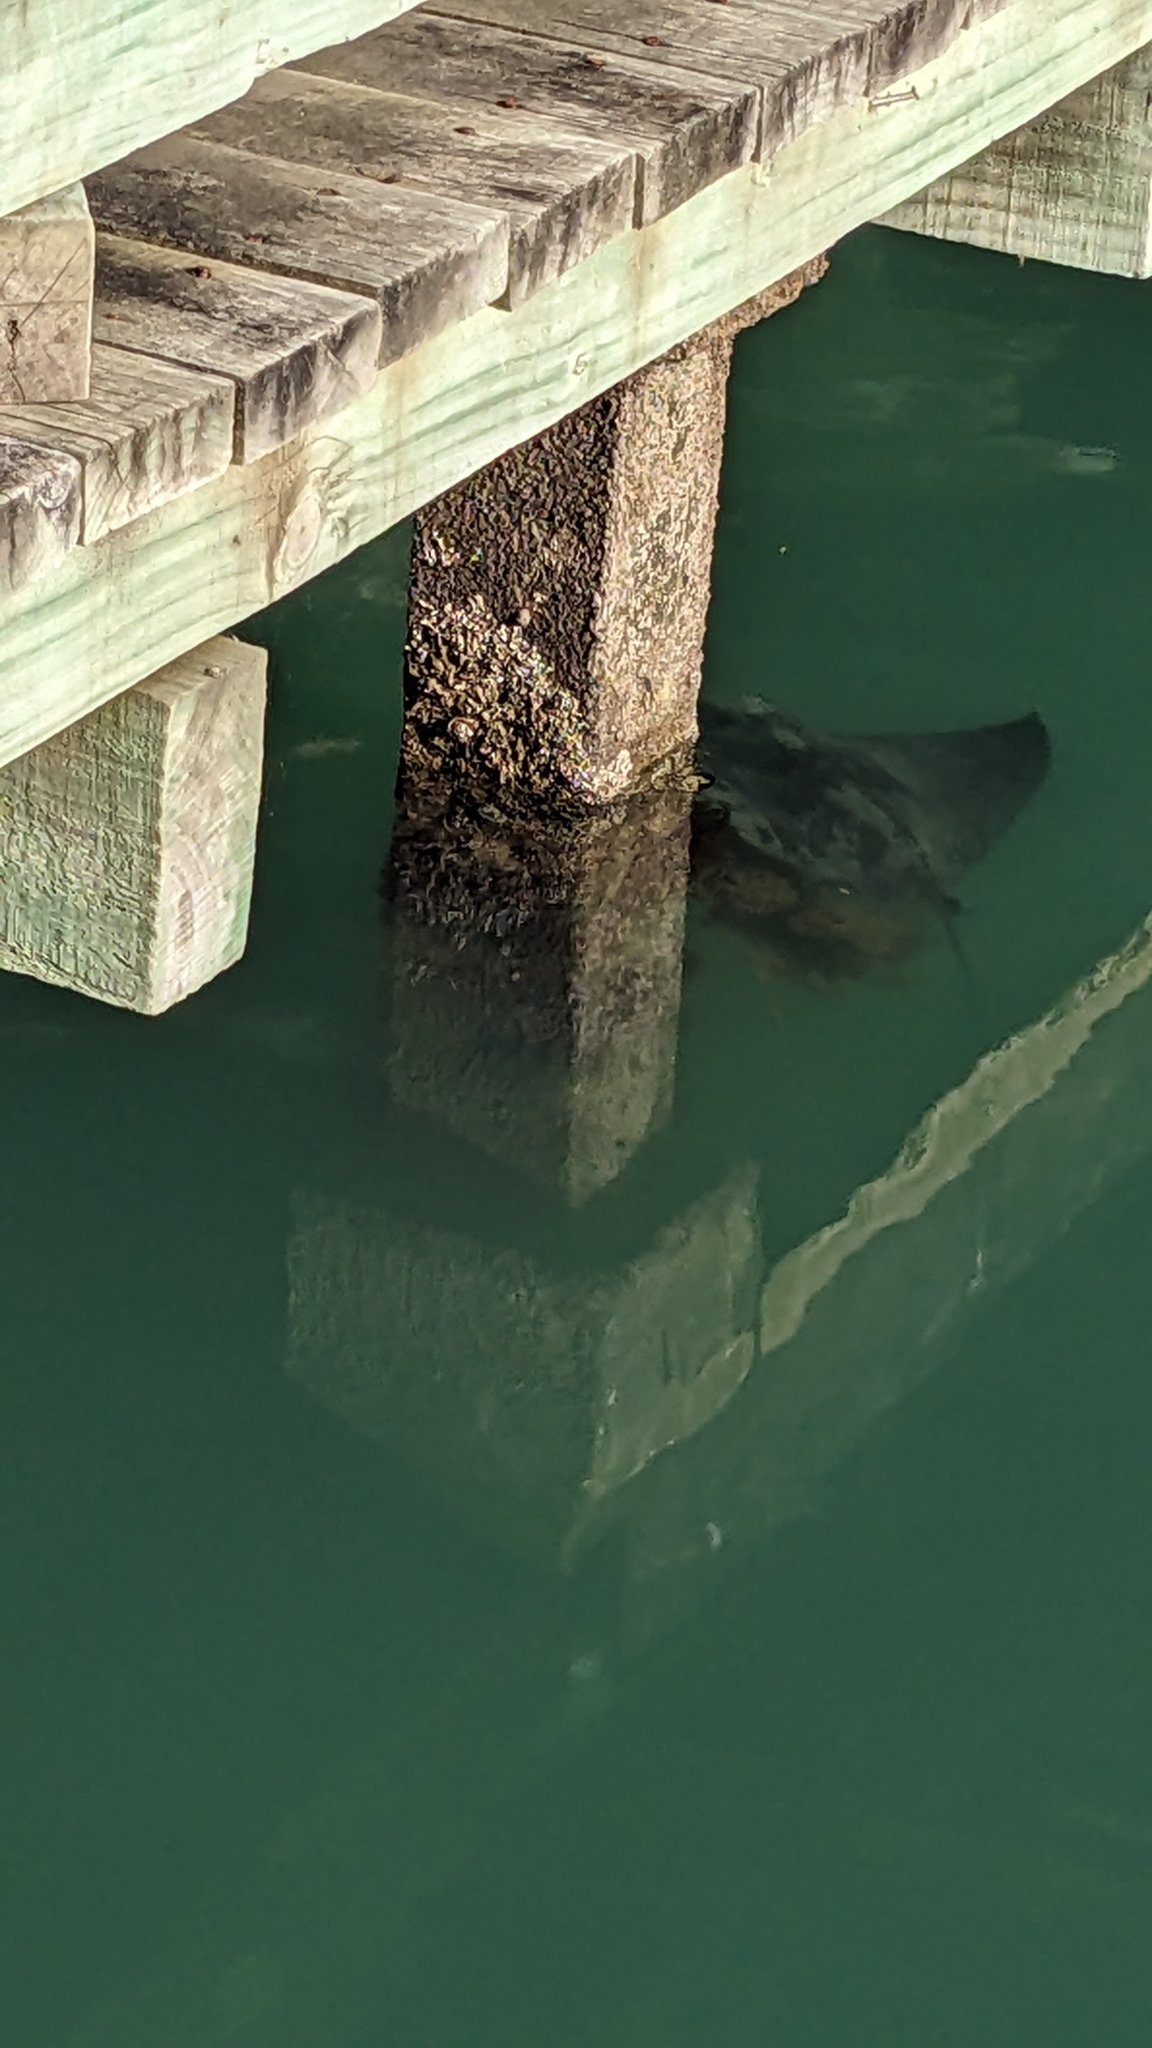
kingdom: Animalia
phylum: Chordata
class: Elasmobranchii
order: Myliobatiformes
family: Myliobatidae
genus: Myliobatis
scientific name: Myliobatis tenuicaudatus
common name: Eagle ray
